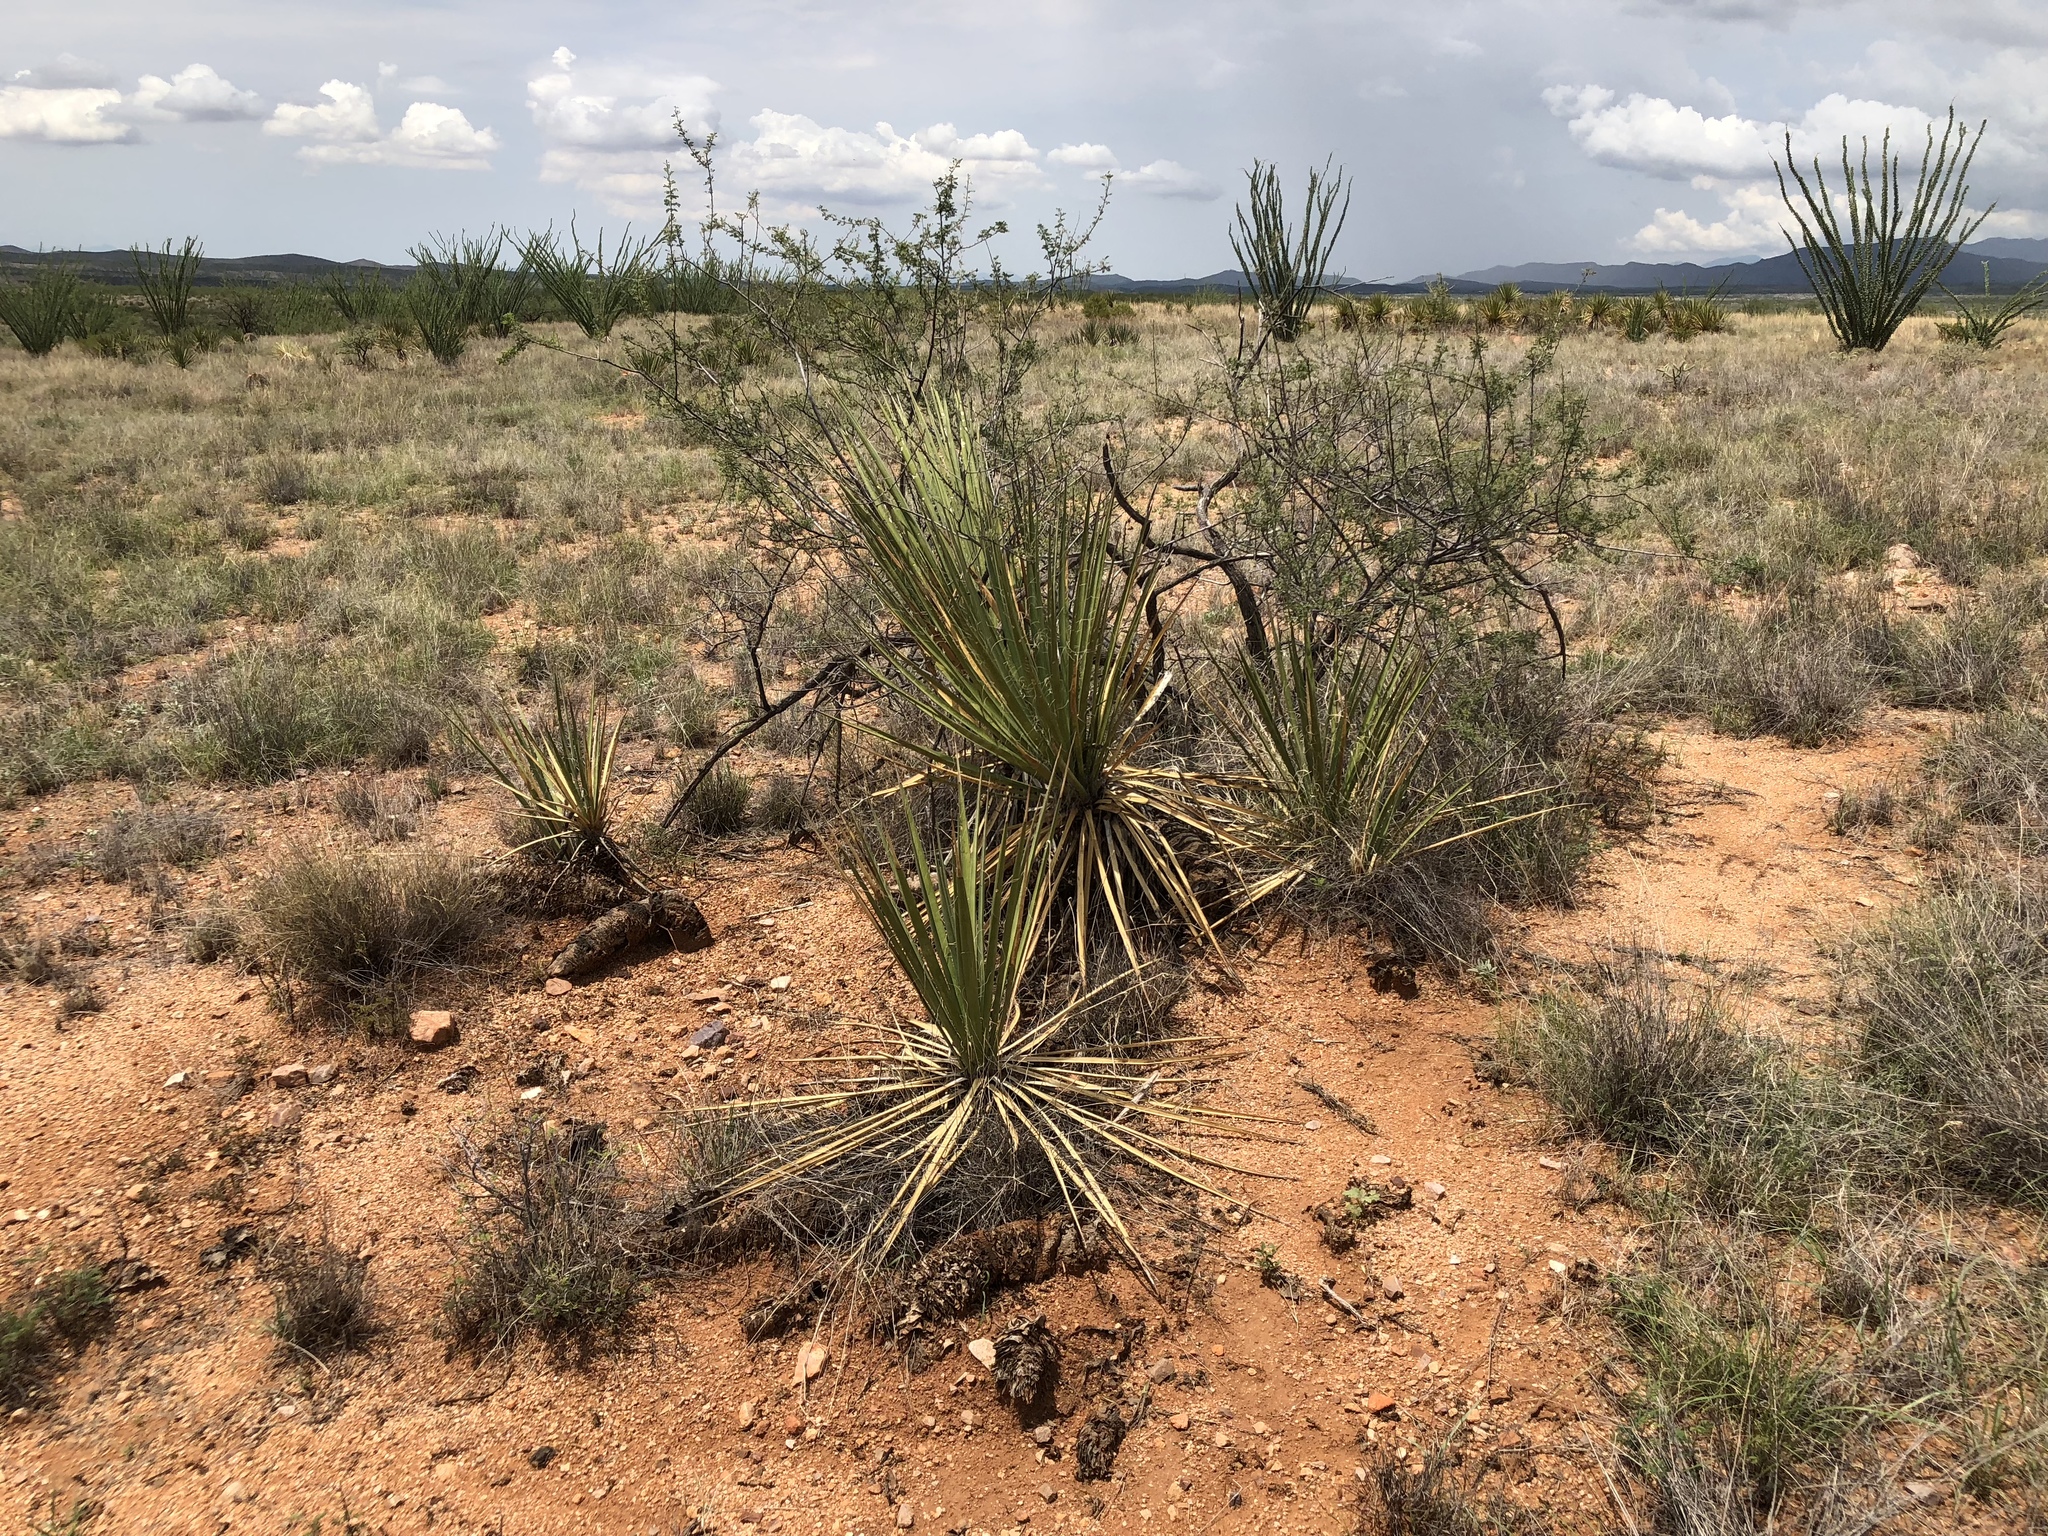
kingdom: Plantae
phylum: Tracheophyta
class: Liliopsida
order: Asparagales
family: Asparagaceae
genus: Yucca
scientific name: Yucca baccata
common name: Banana yucca
